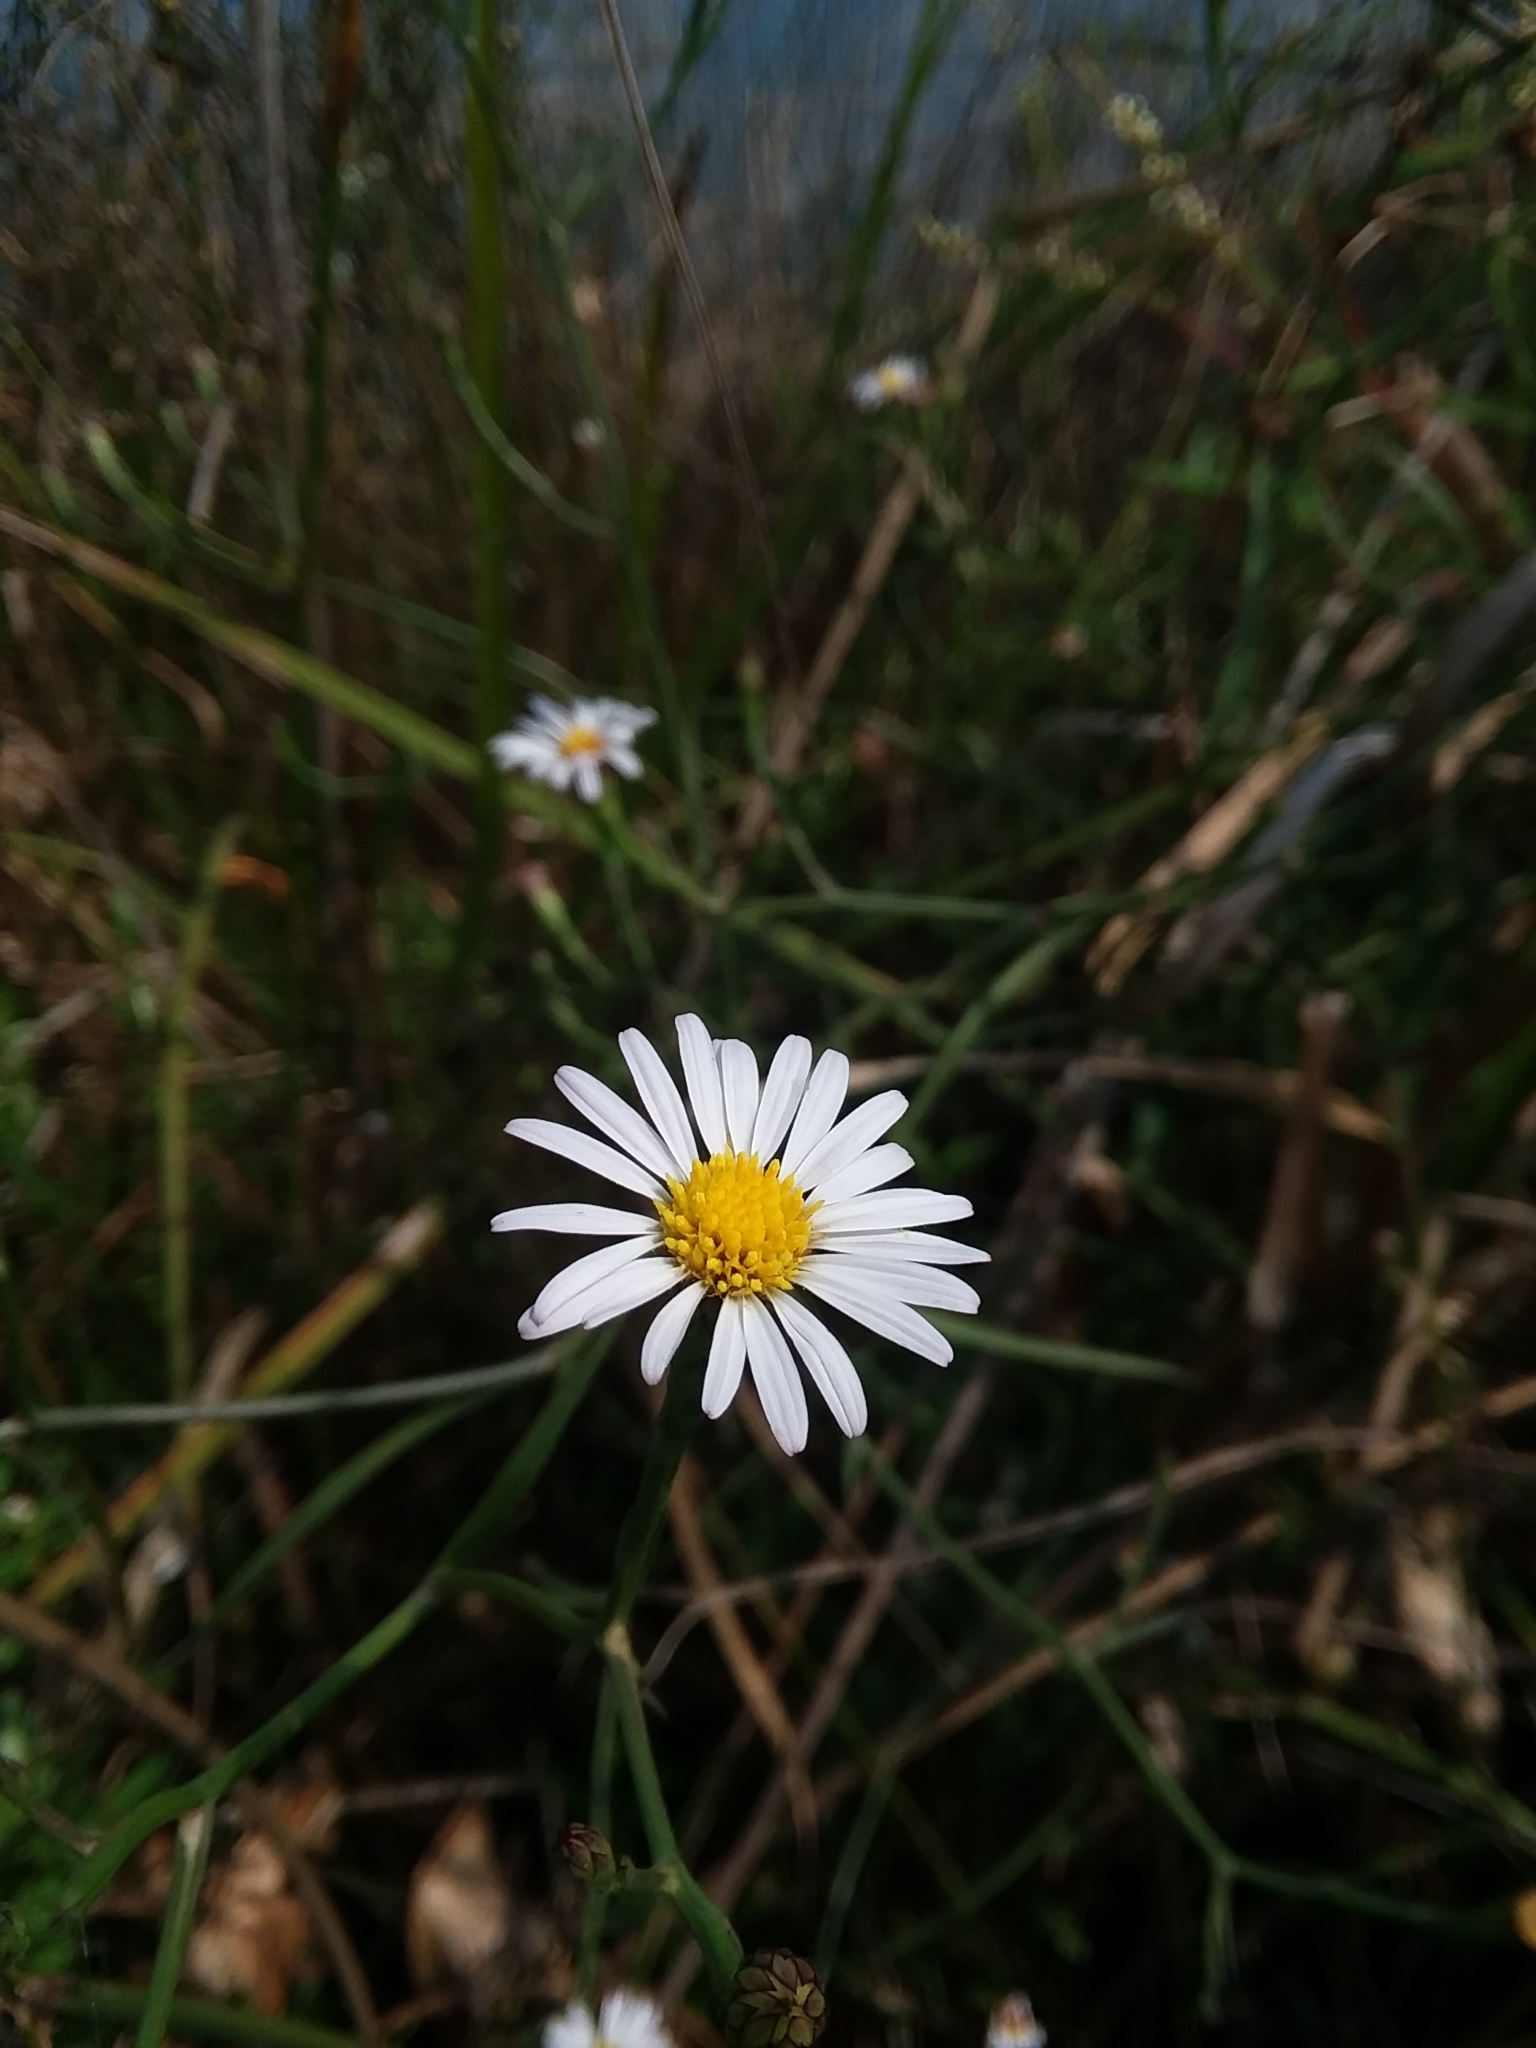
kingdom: Plantae
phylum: Tracheophyta
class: Magnoliopsida
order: Asterales
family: Asteraceae
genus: Symphyotrichum
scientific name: Symphyotrichum tenuifolium
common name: Perennial salt-marsh aster
